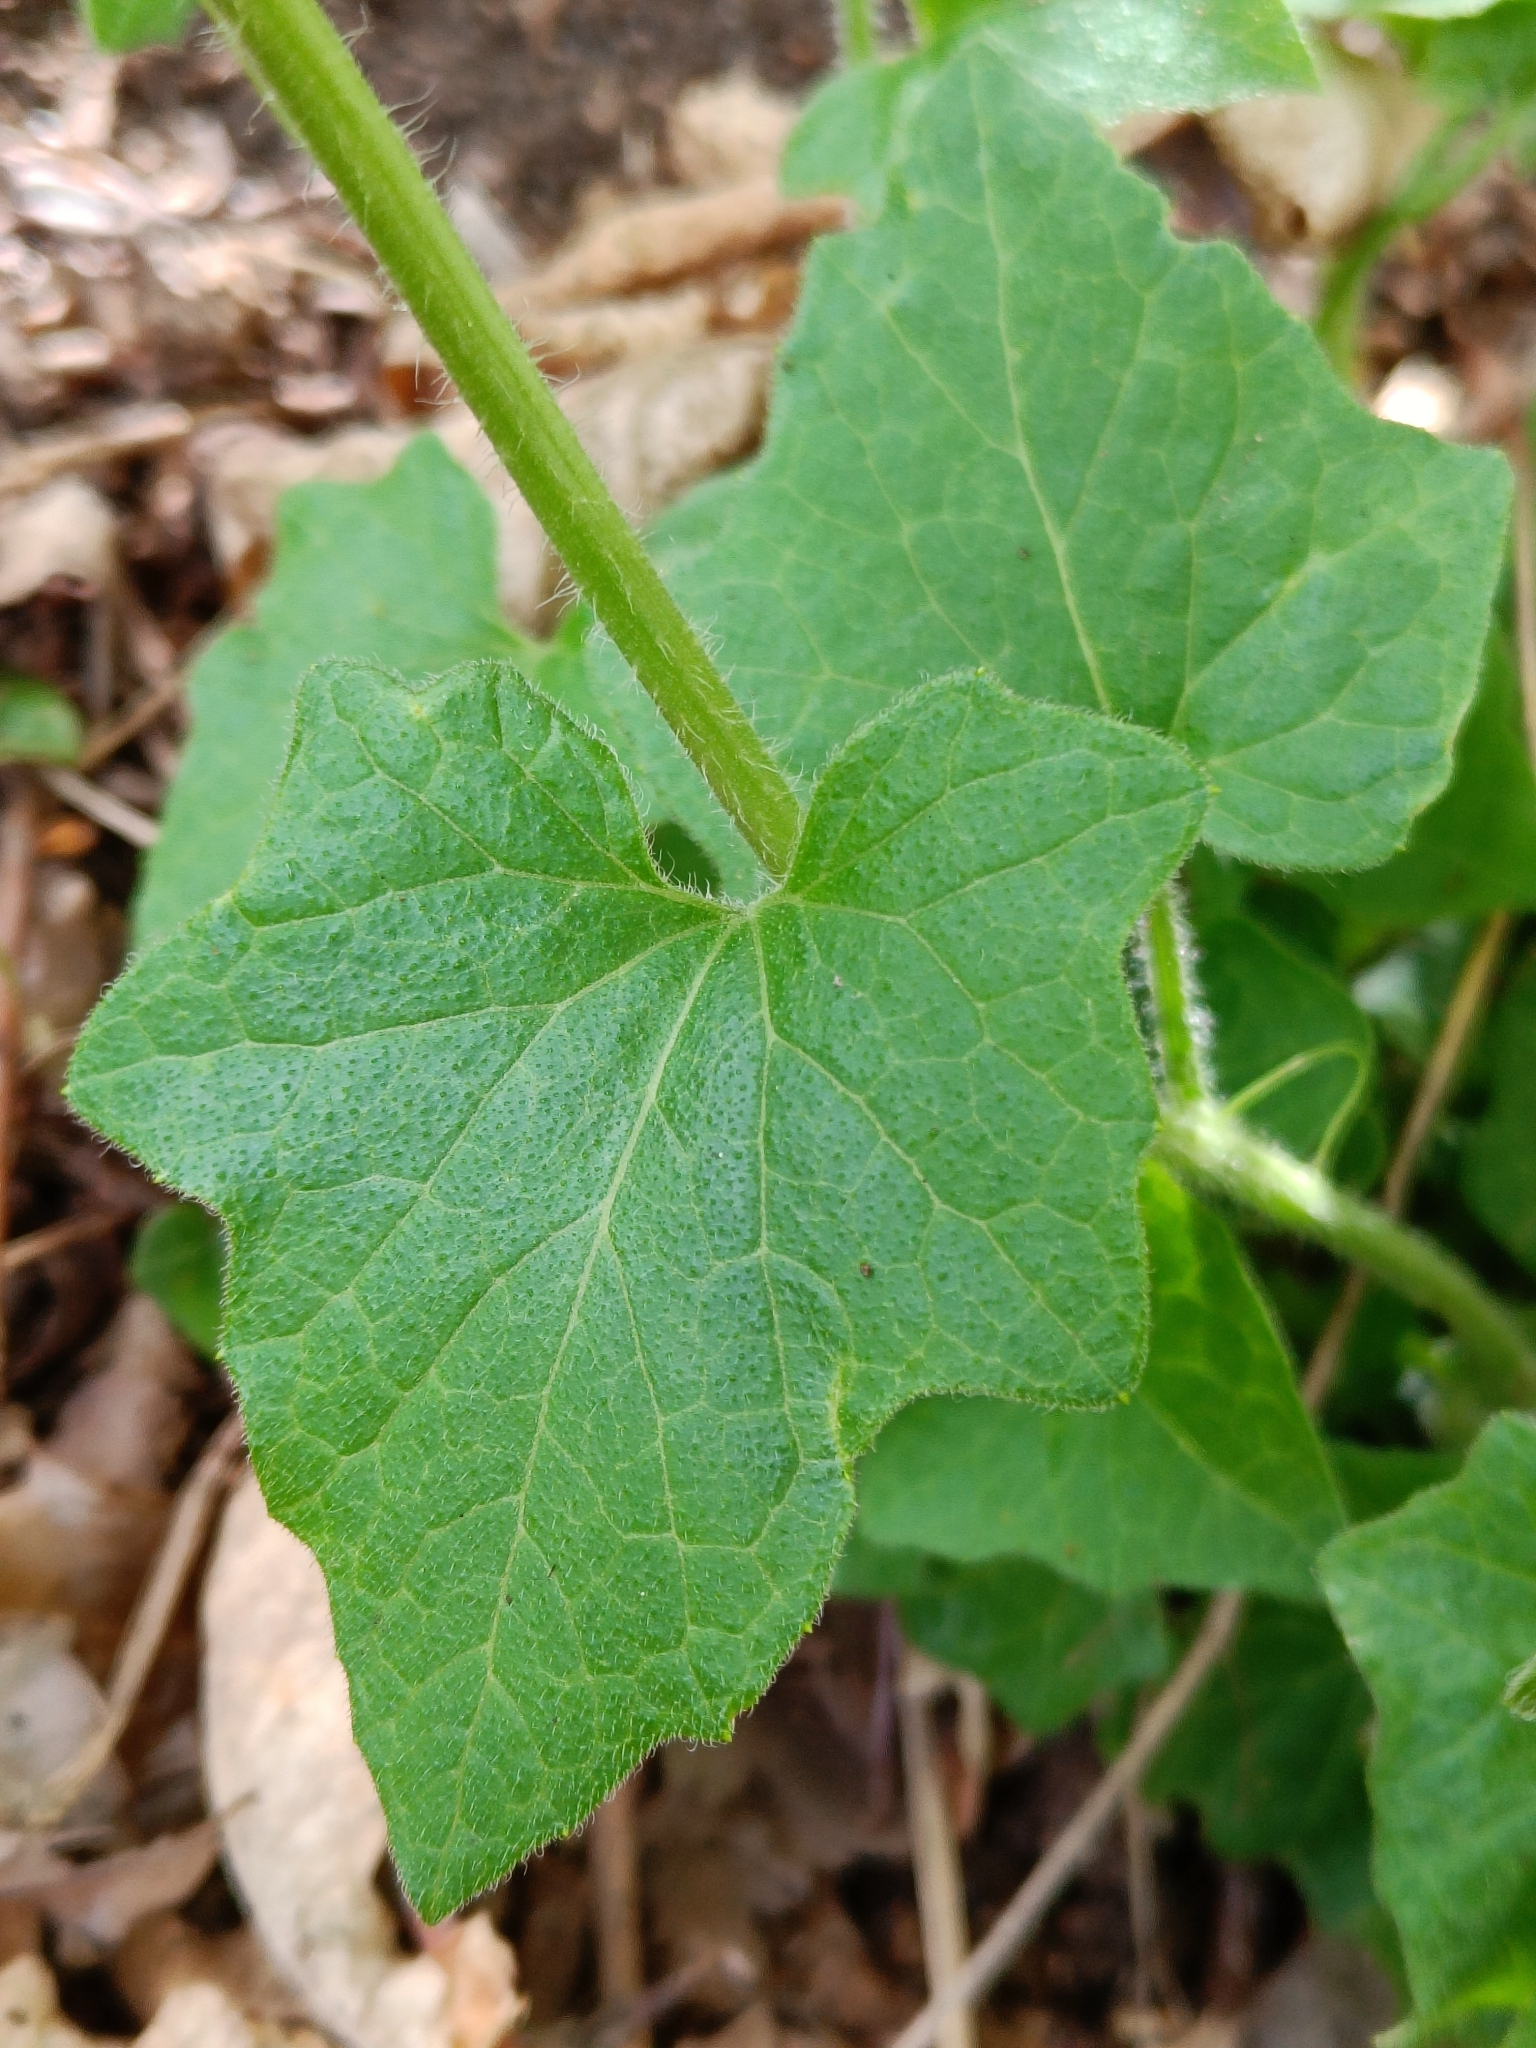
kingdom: Plantae
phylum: Tracheophyta
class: Magnoliopsida
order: Cucurbitales
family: Cucurbitaceae
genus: Bryonia
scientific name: Bryonia cretica
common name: Cretan bryony
